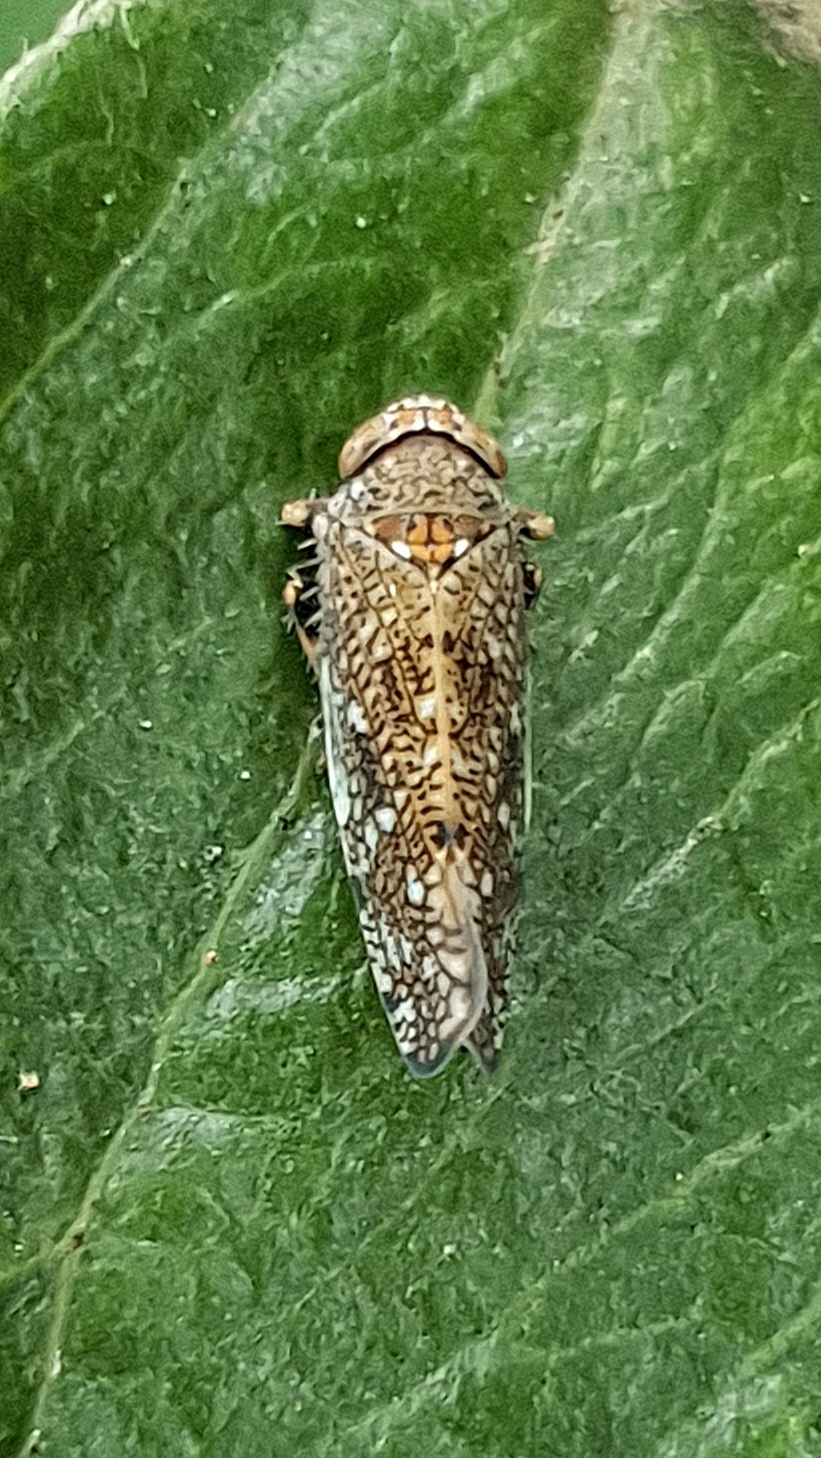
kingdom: Animalia
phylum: Arthropoda
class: Insecta
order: Hemiptera
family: Cicadellidae
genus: Orientus
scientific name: Orientus ishidae
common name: Japanese leafhopper
